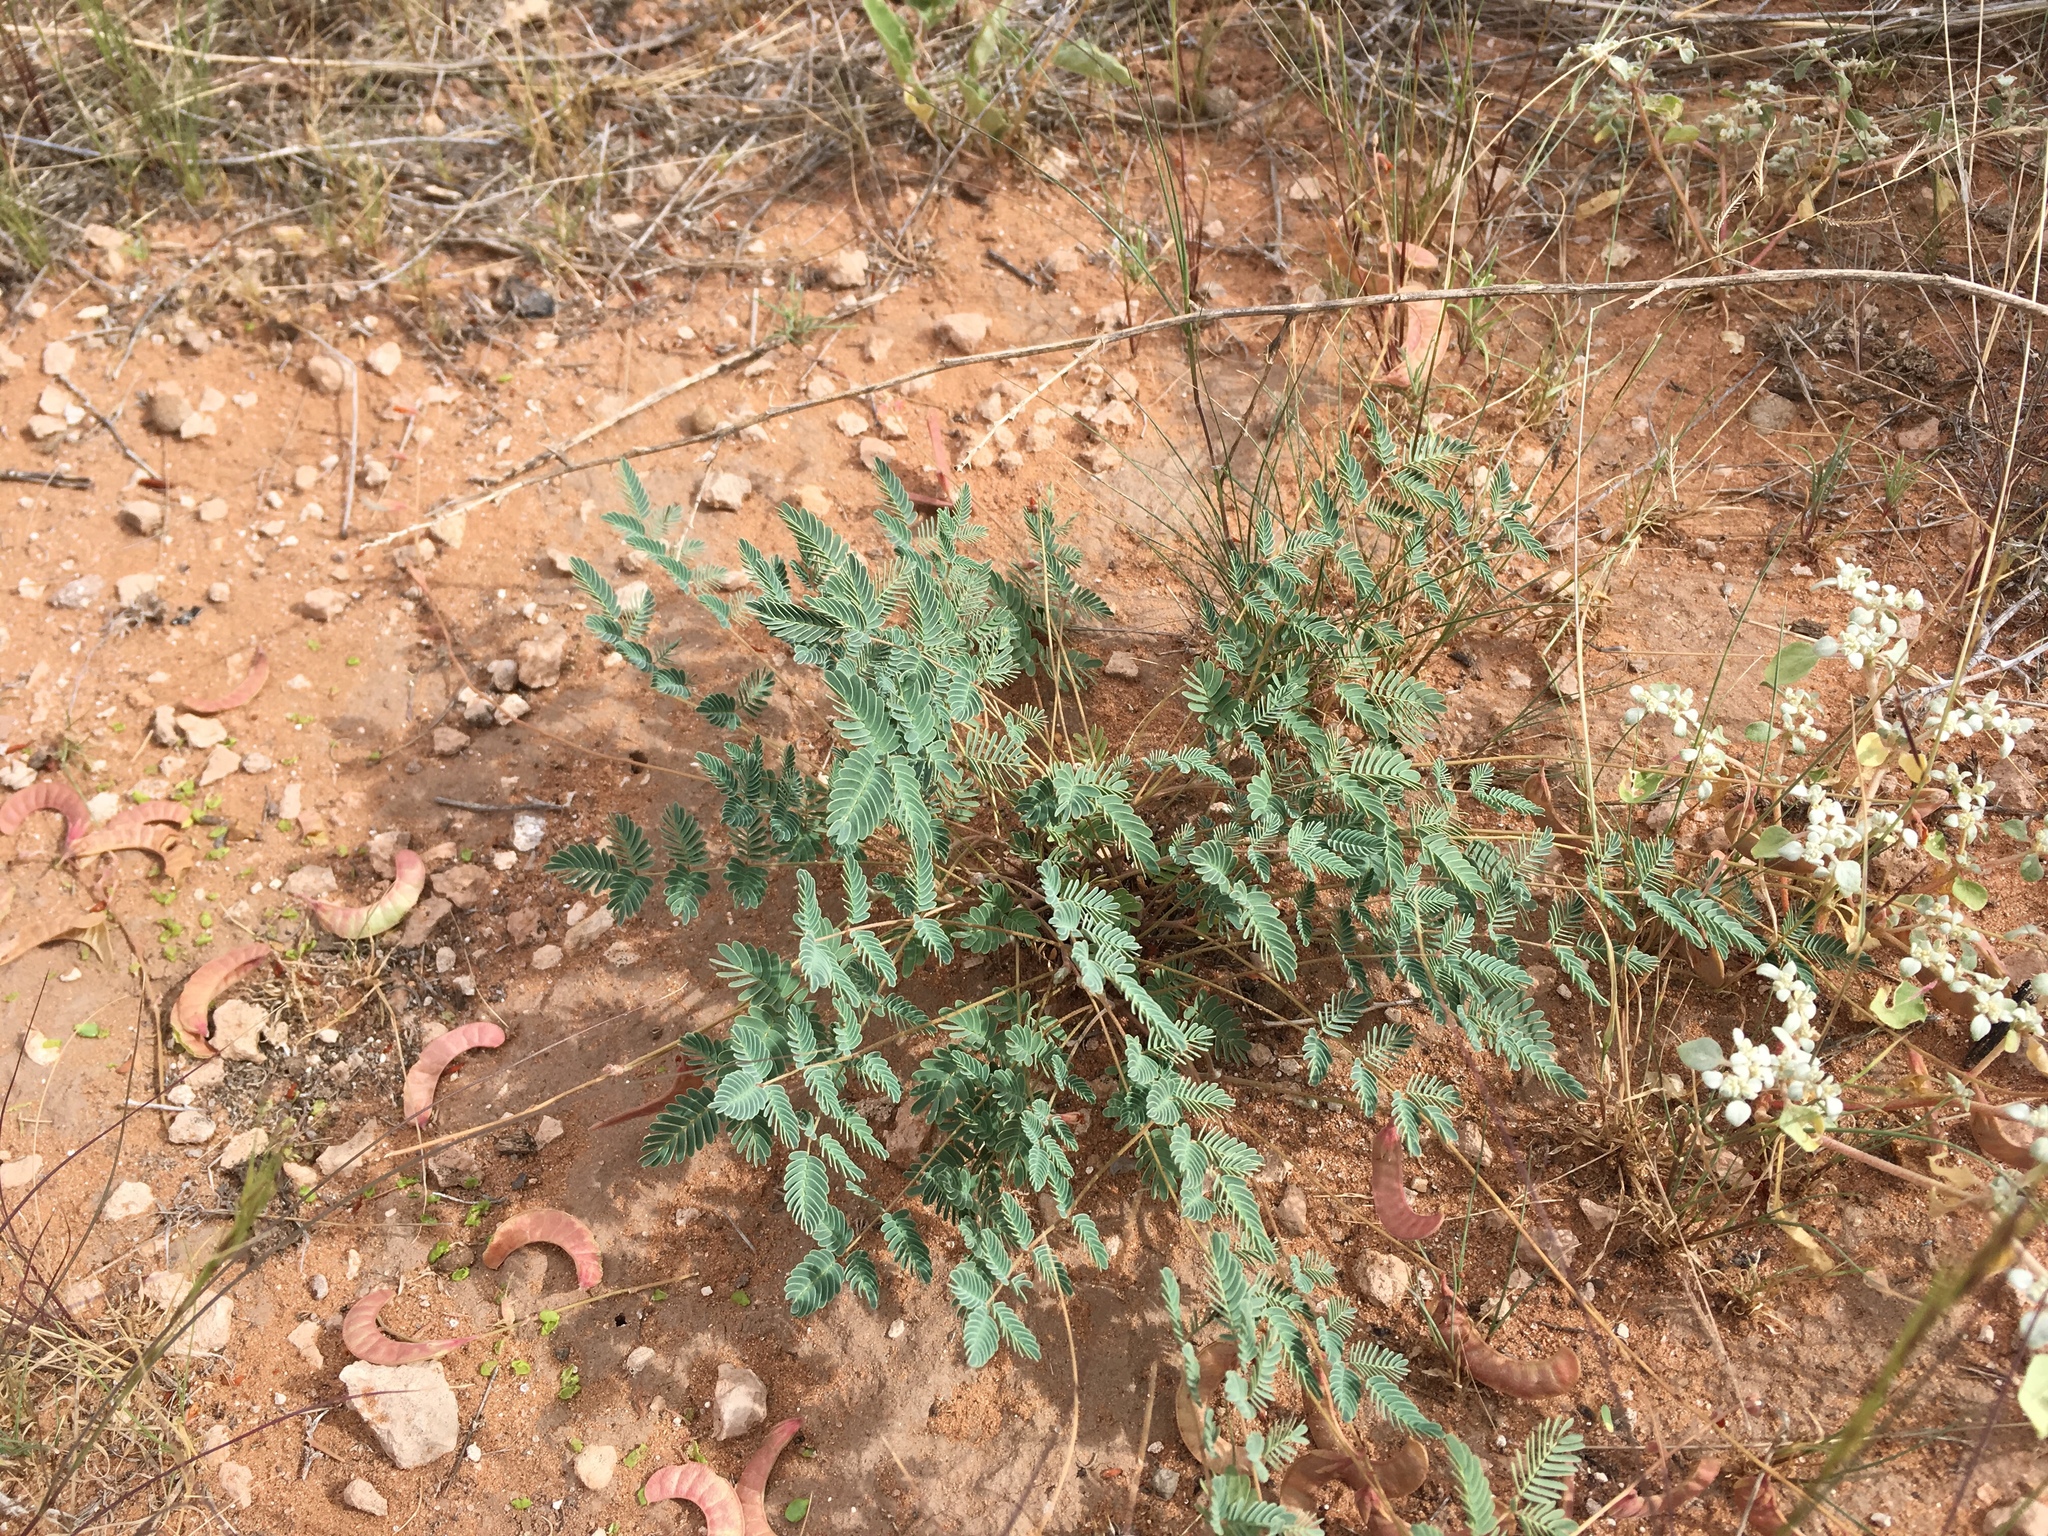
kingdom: Plantae
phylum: Tracheophyta
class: Magnoliopsida
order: Fabales
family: Fabaceae
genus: Hoffmannseggia
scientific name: Hoffmannseggia drepanocarpa
